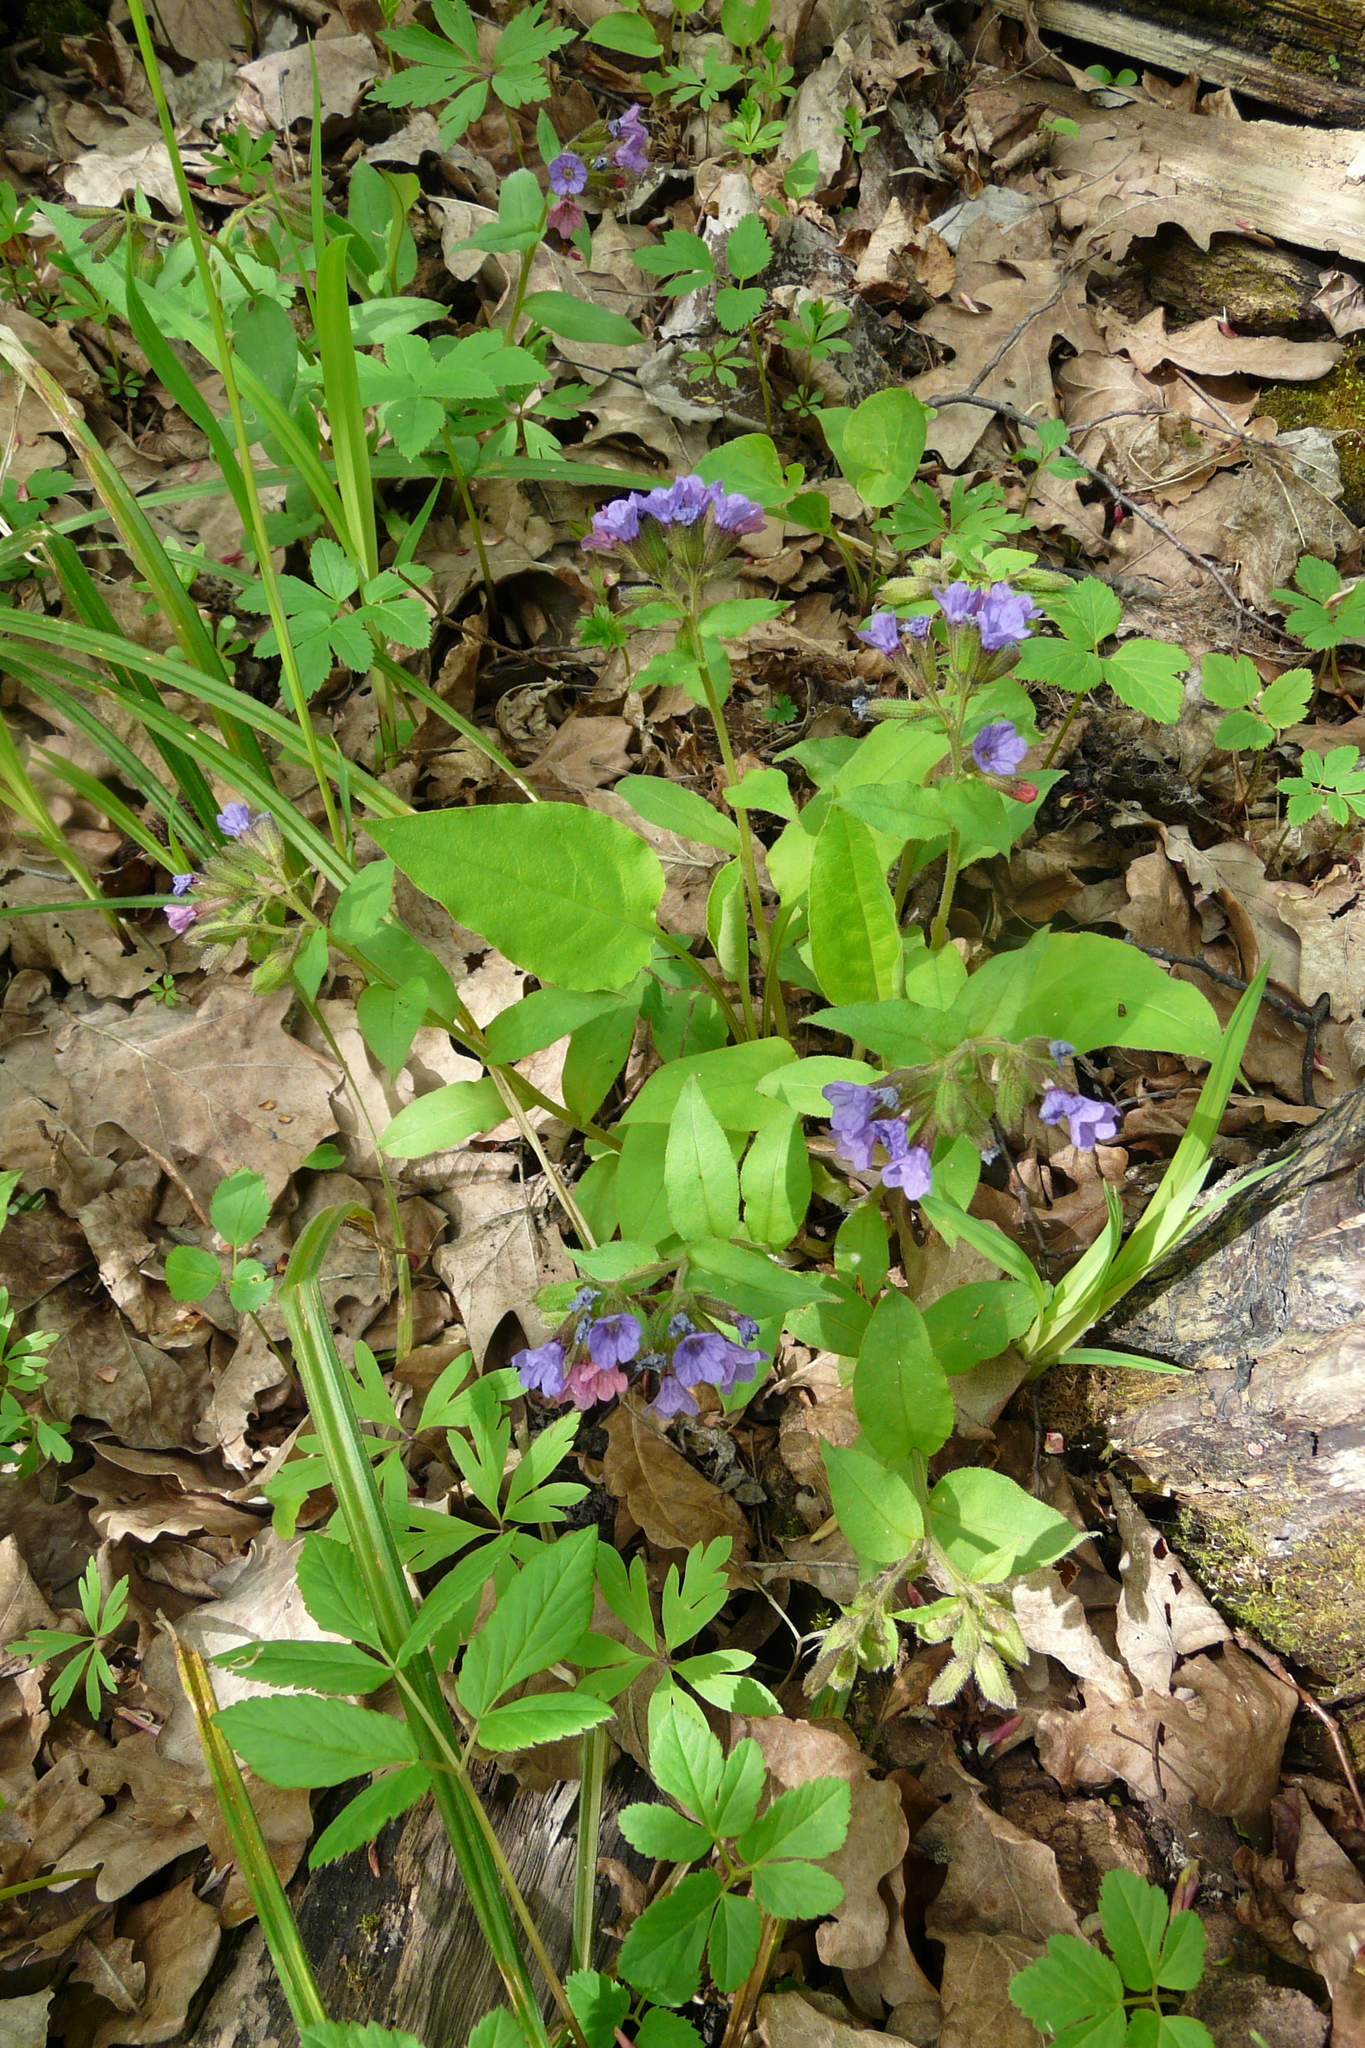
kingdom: Plantae
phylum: Tracheophyta
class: Magnoliopsida
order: Boraginales
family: Boraginaceae
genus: Pulmonaria
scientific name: Pulmonaria obscura
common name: Suffolk lungwort
